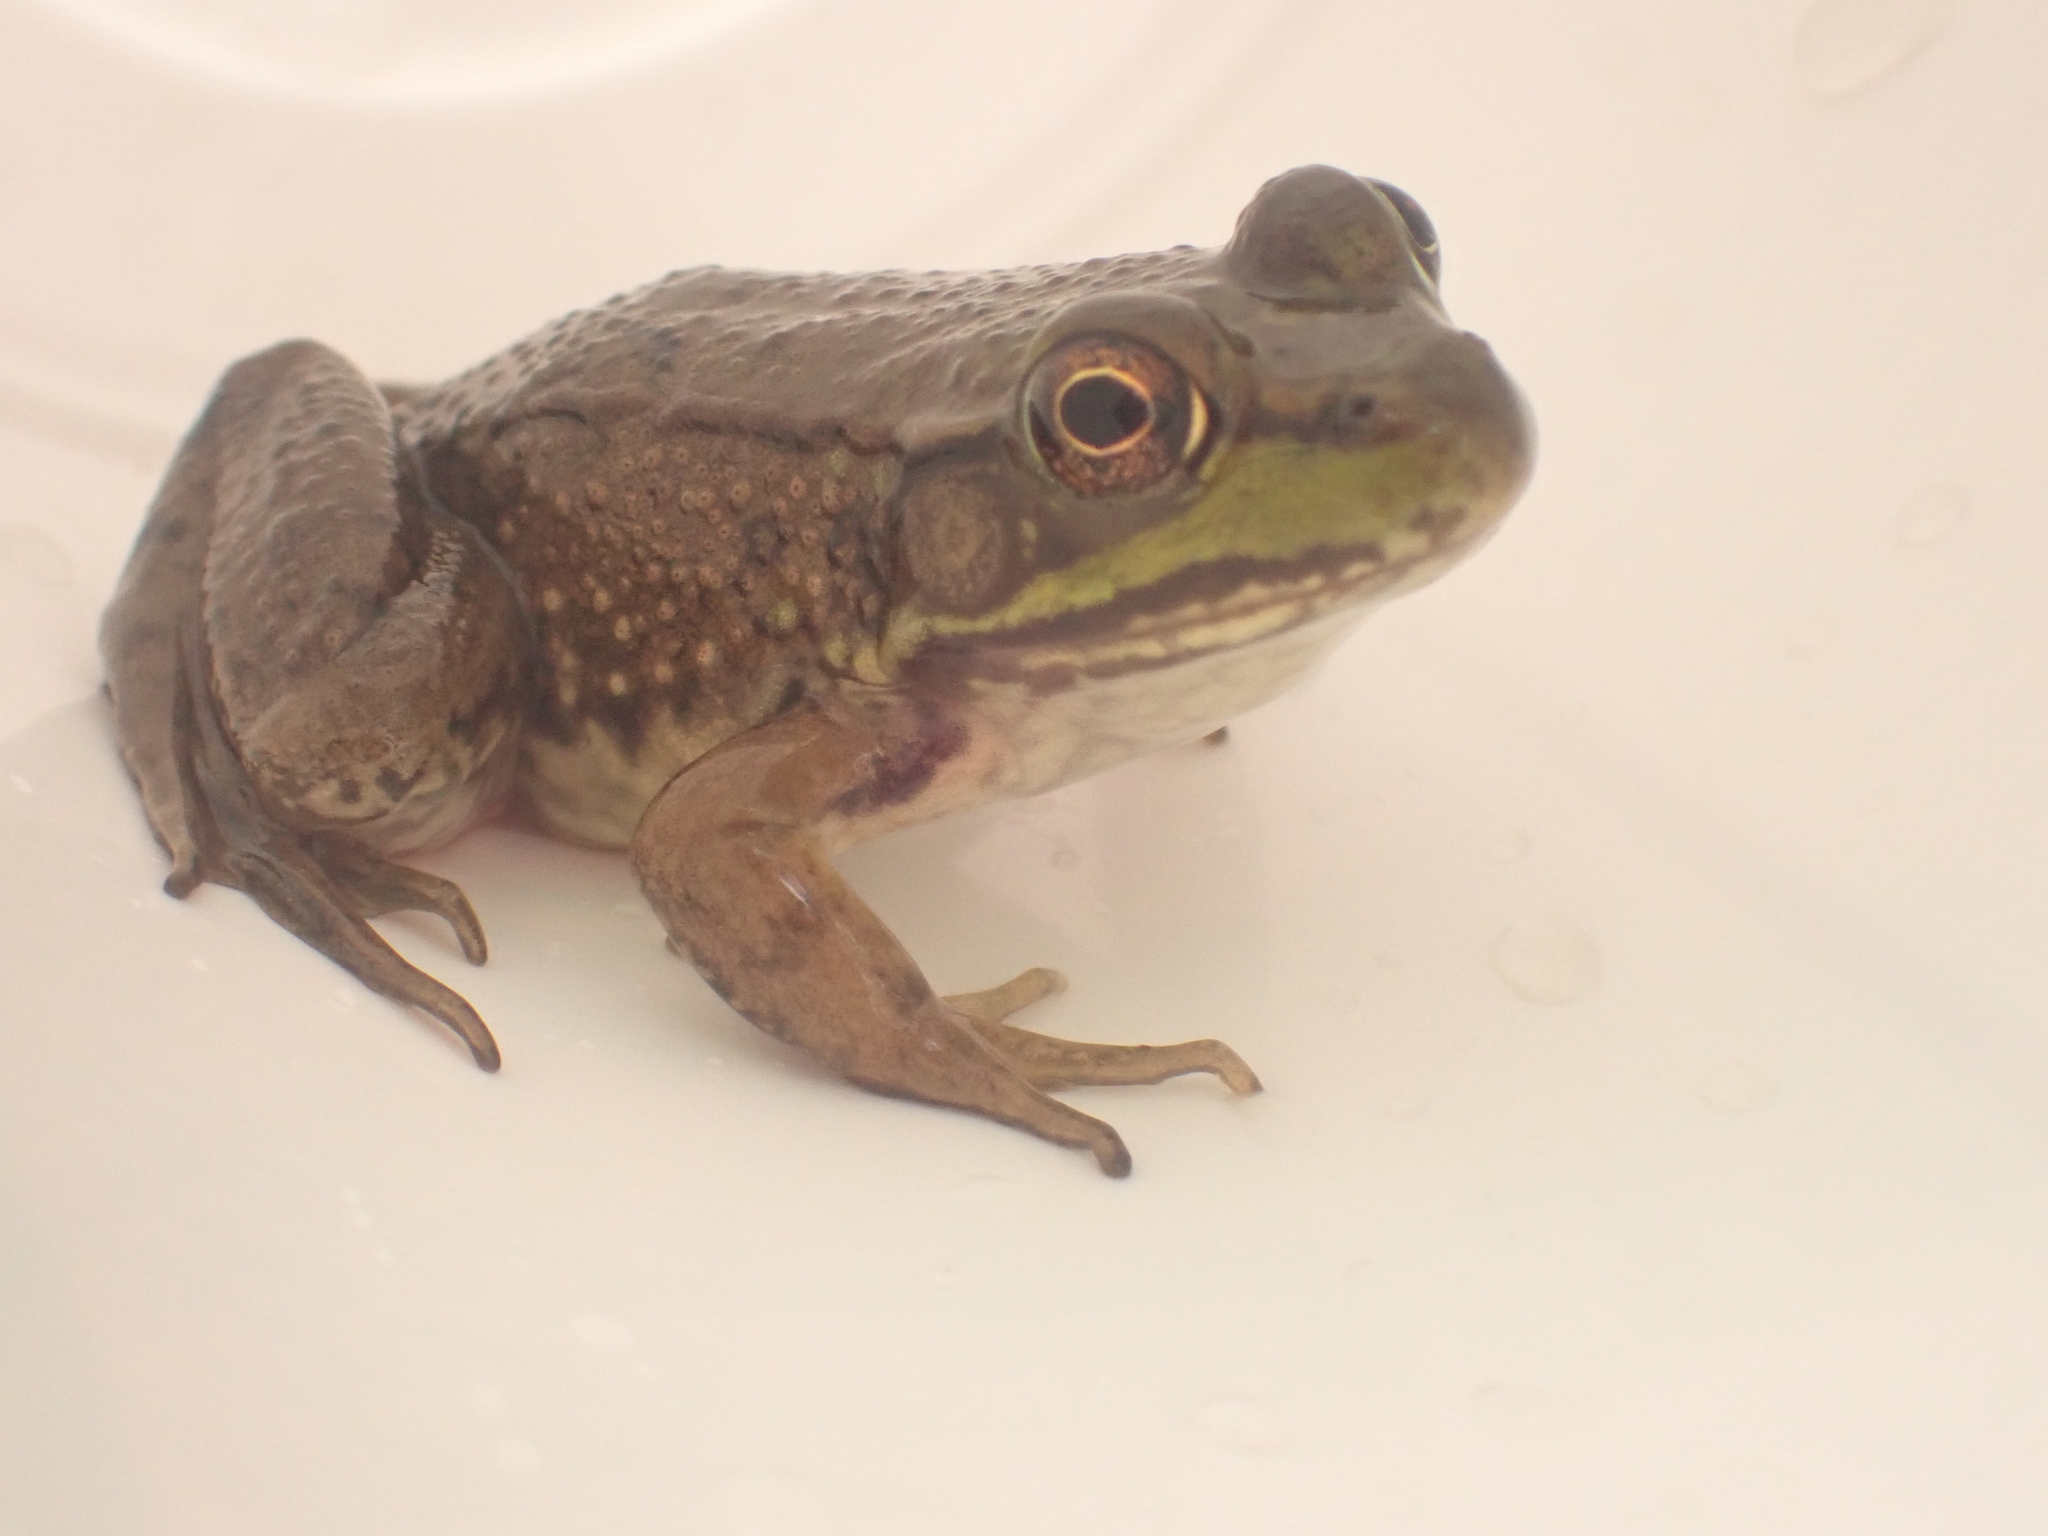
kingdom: Animalia
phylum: Chordata
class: Amphibia
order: Anura
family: Ranidae
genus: Lithobates
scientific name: Lithobates clamitans
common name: Green frog
